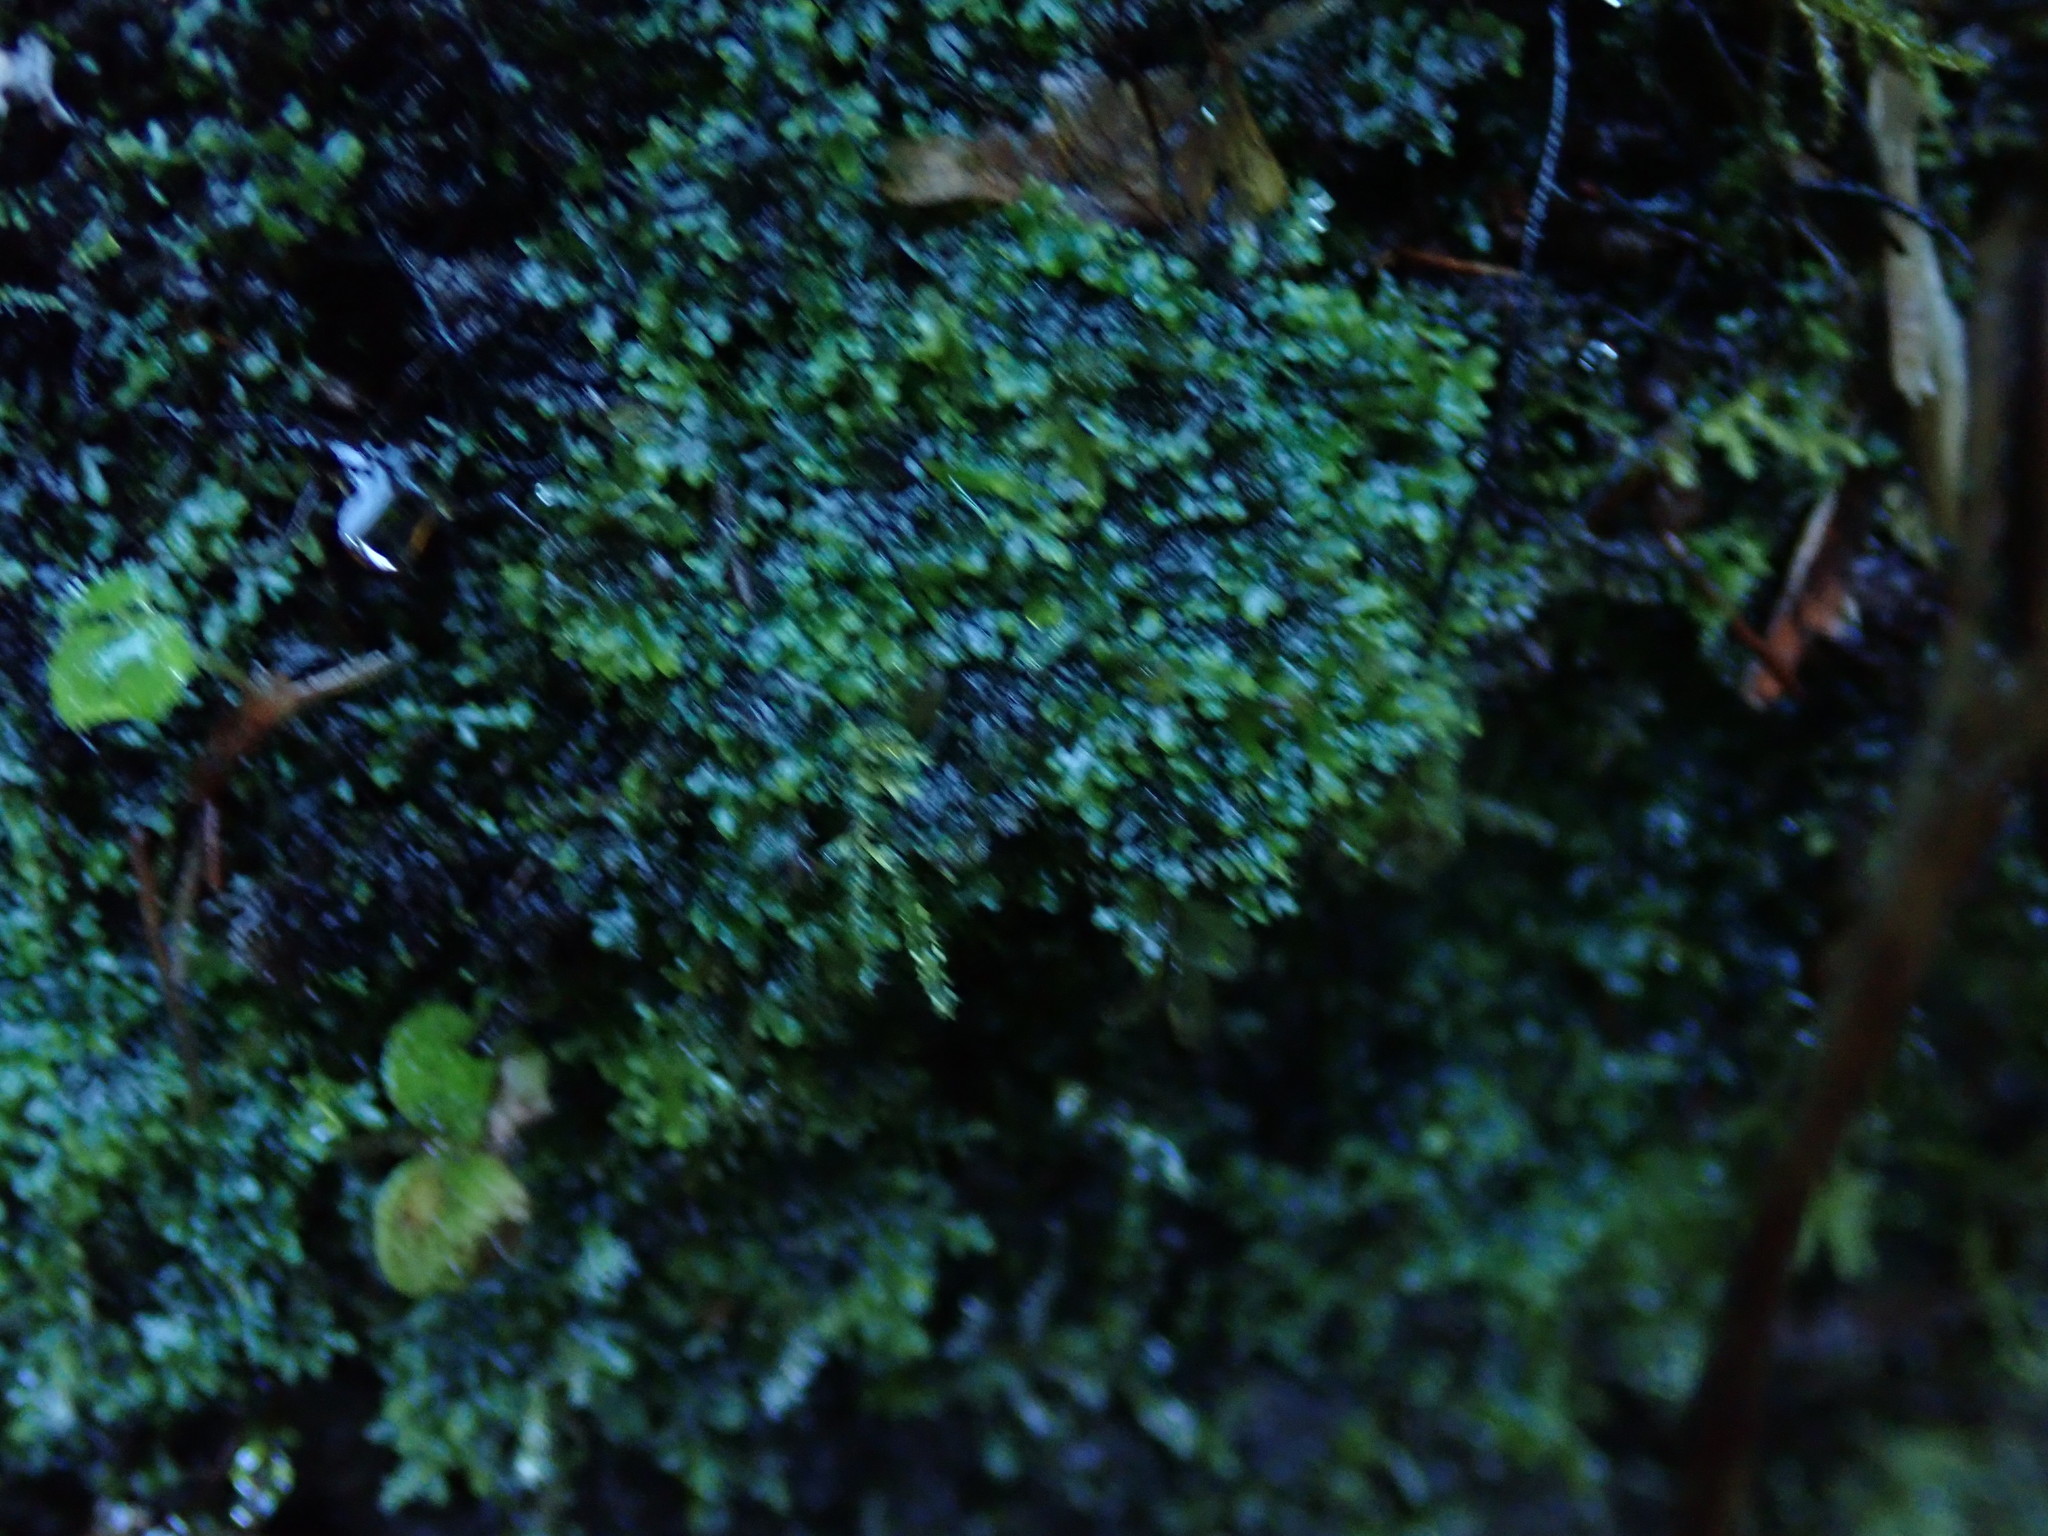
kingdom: Plantae
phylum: Marchantiophyta
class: Jungermanniopsida
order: Metzgeriales
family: Aneuraceae
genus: Riccardia
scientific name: Riccardia chamedryfolia
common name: Jagged germanderwort
